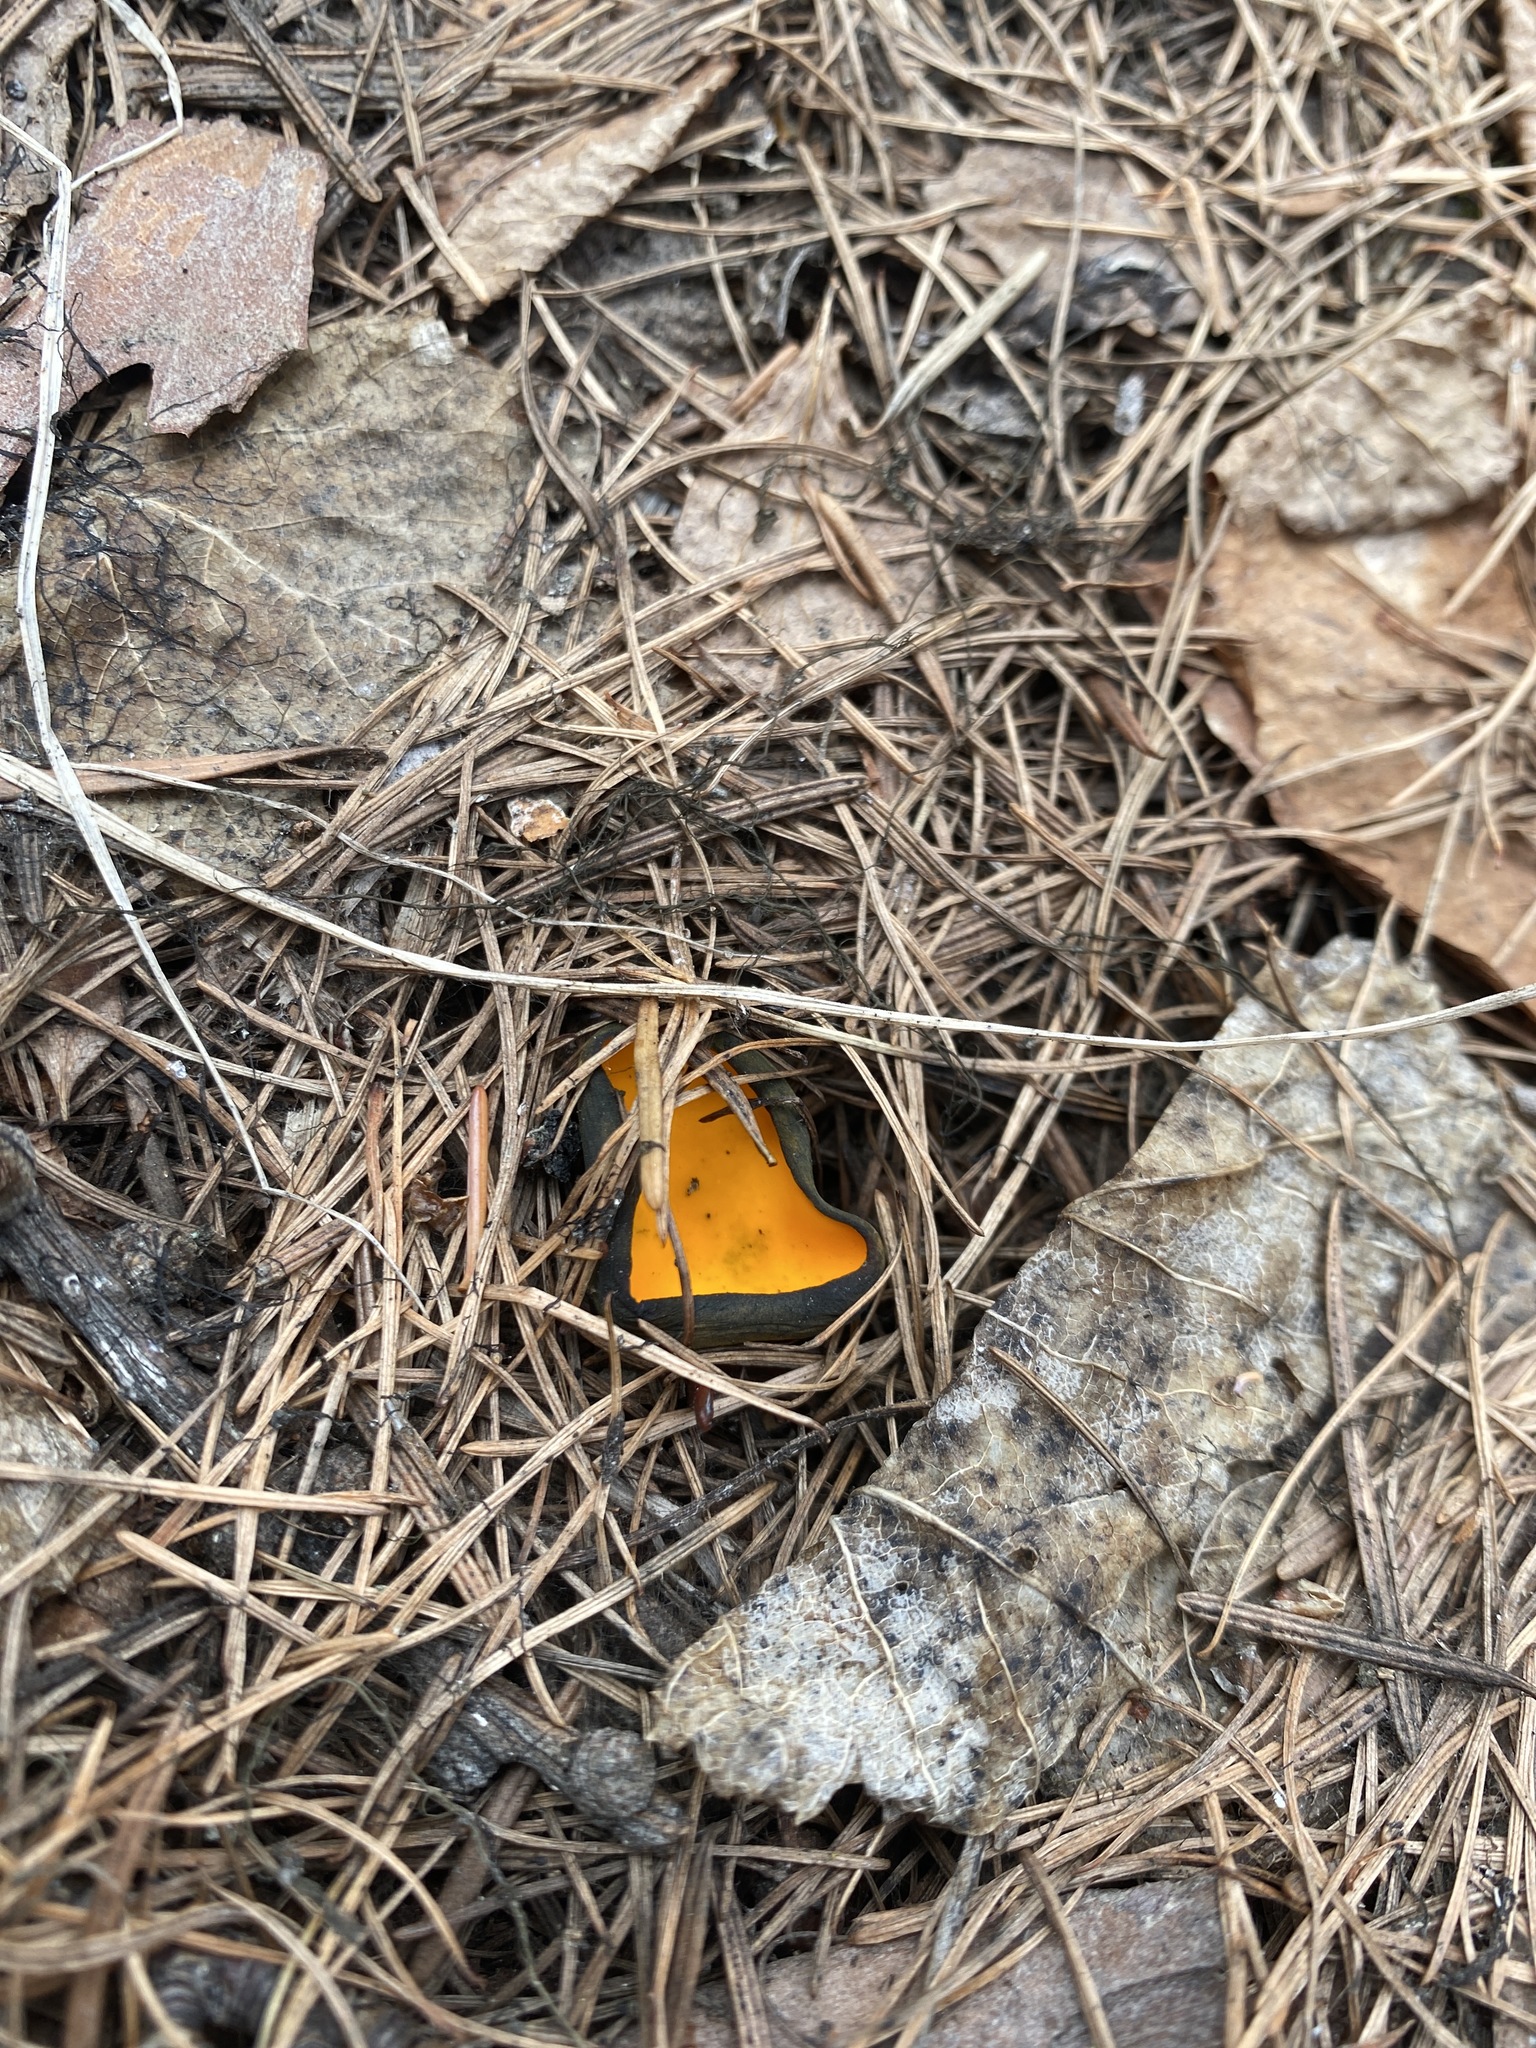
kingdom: Fungi
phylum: Ascomycota
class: Pezizomycetes
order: Pezizales
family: Caloscyphaceae
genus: Caloscypha
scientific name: Caloscypha fulgens
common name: Golden cup
